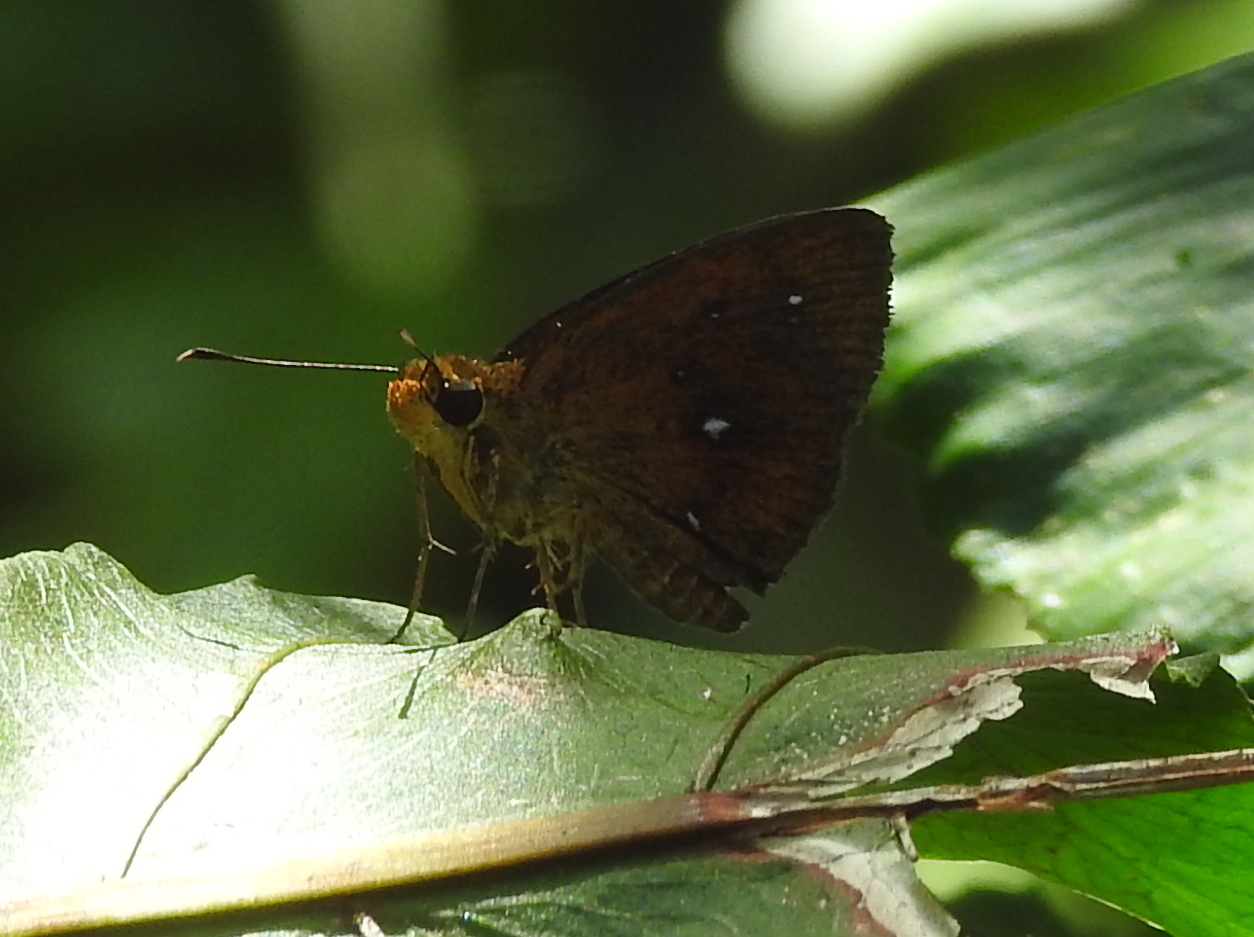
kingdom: Animalia
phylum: Arthropoda
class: Insecta
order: Lepidoptera
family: Hesperiidae
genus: Iambrix
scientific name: Iambrix salsala
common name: Chestnut bob
